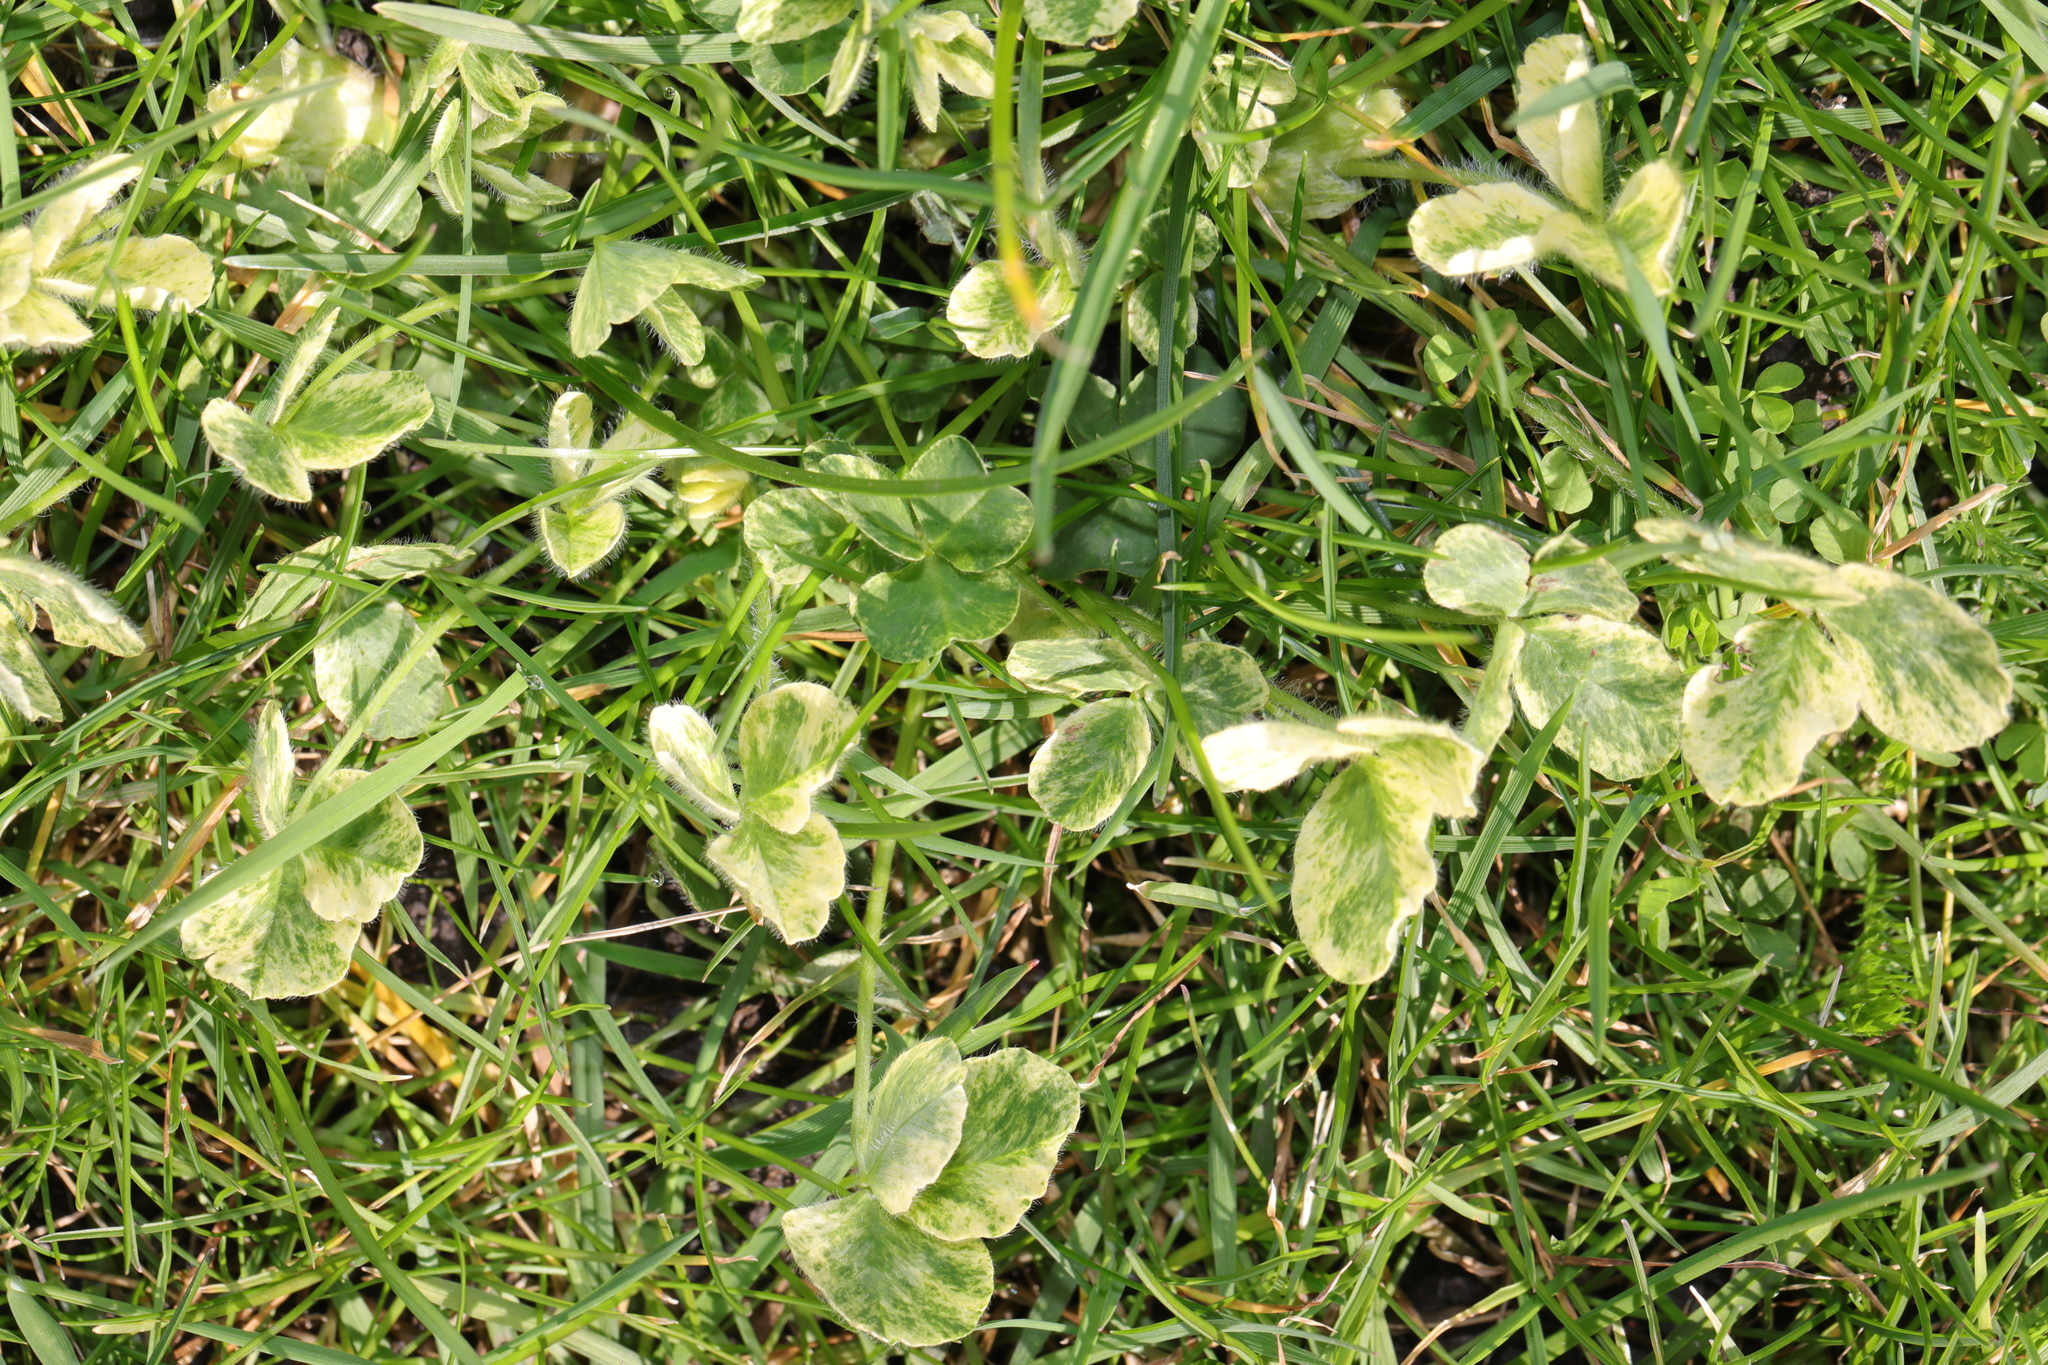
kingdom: Plantae
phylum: Tracheophyta
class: Magnoliopsida
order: Fabales
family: Fabaceae
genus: Trifolium
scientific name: Trifolium repens
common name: White clover
